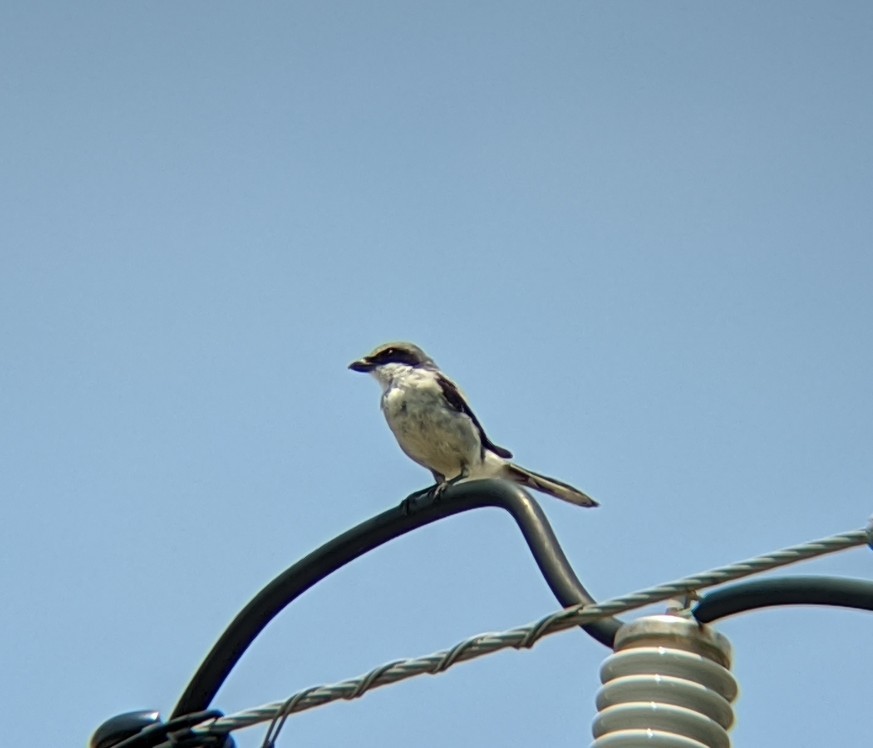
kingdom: Animalia
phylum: Chordata
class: Aves
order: Passeriformes
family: Laniidae
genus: Lanius
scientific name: Lanius ludovicianus
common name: Loggerhead shrike
